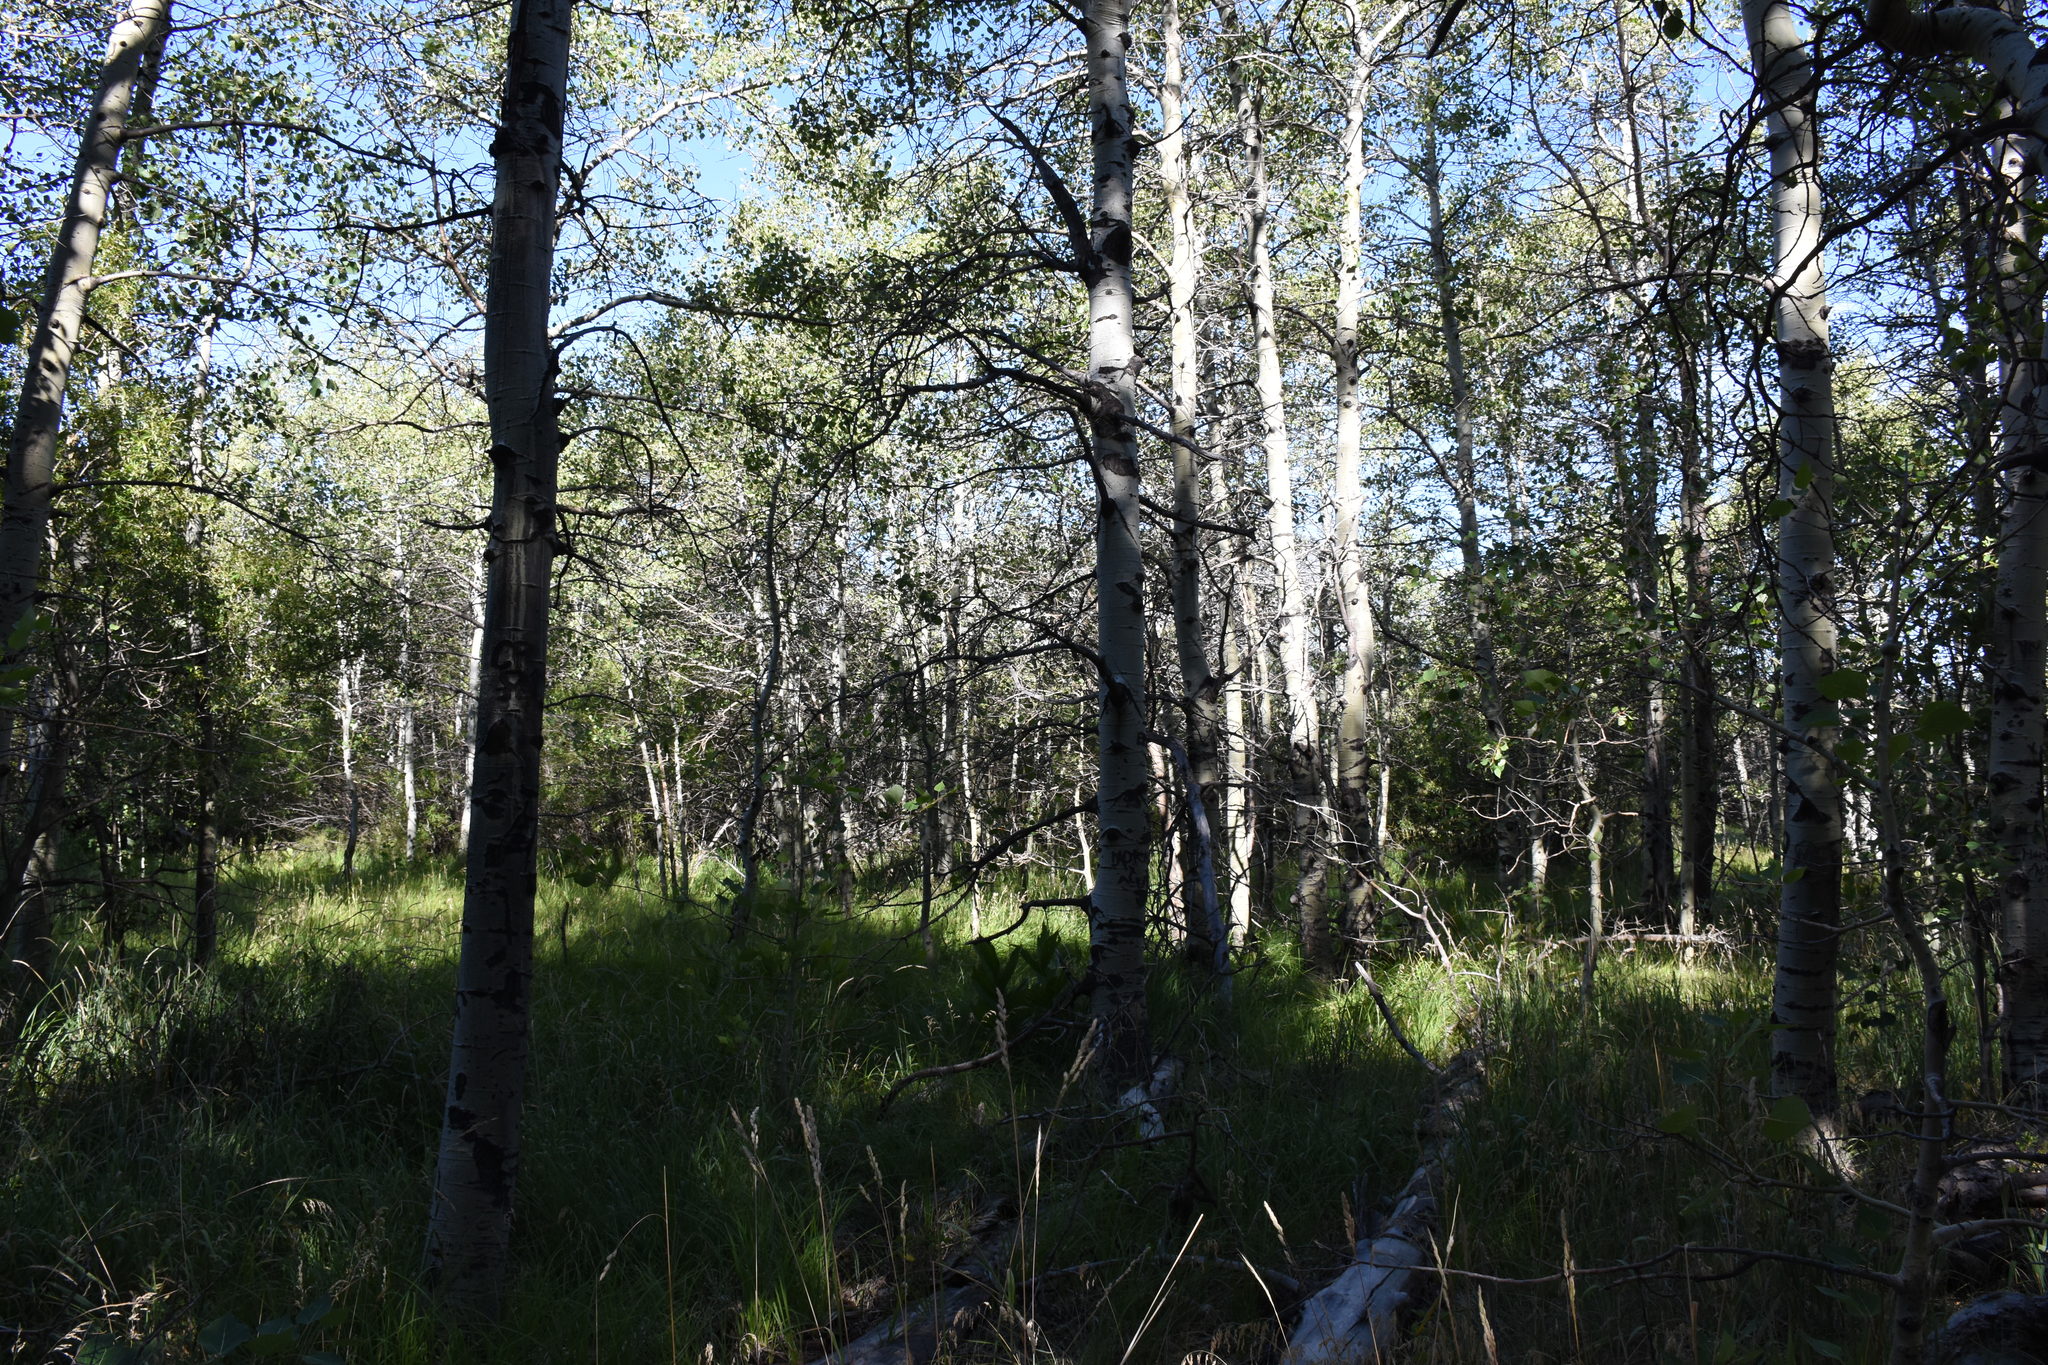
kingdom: Plantae
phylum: Tracheophyta
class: Magnoliopsida
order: Malpighiales
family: Salicaceae
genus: Populus
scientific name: Populus tremuloides
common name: Quaking aspen
